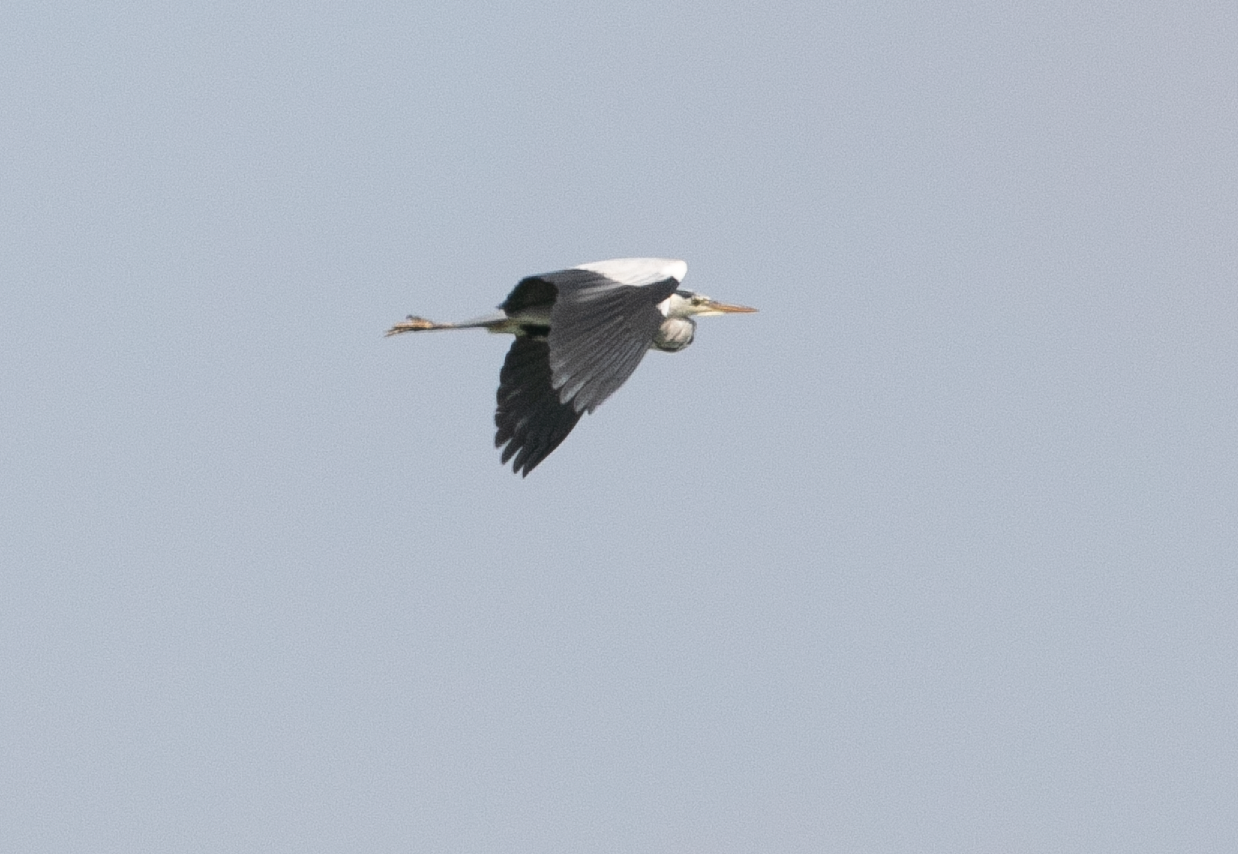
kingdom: Animalia
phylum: Chordata
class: Aves
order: Pelecaniformes
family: Ardeidae
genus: Ardea
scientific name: Ardea cinerea
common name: Grey heron
